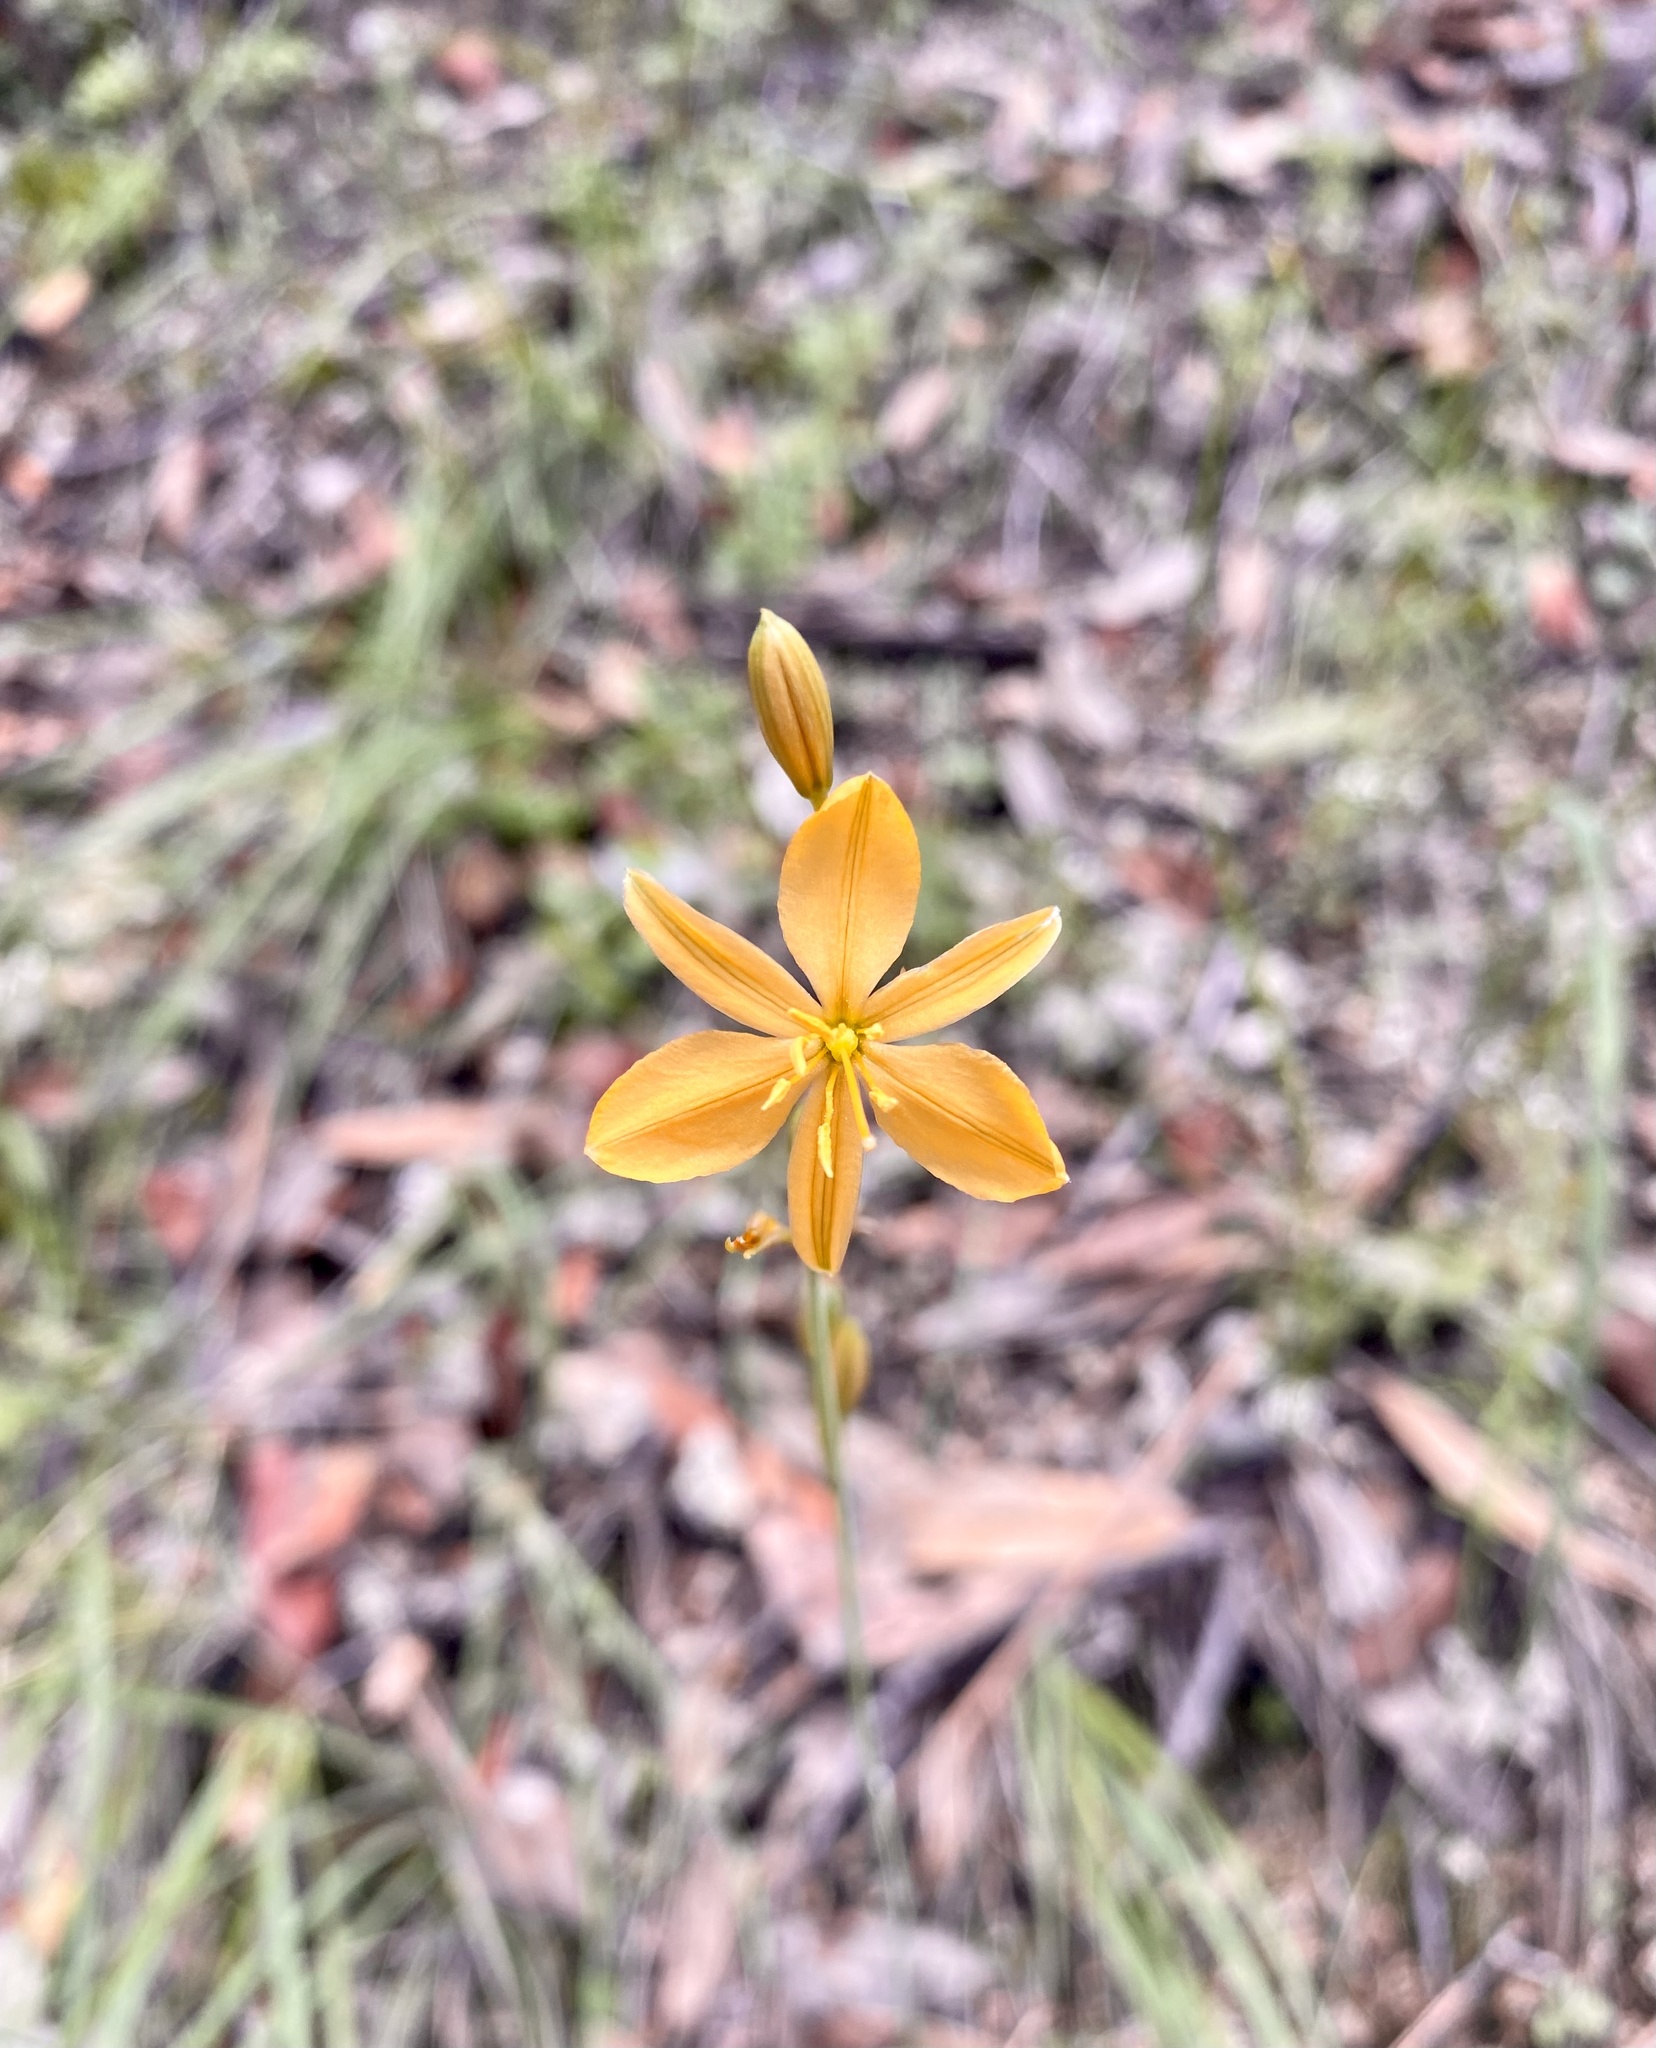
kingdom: Plantae
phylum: Tracheophyta
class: Liliopsida
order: Asparagales
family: Asparagaceae
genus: Echeandia
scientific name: Echeandia flavescens
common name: Amberlily
